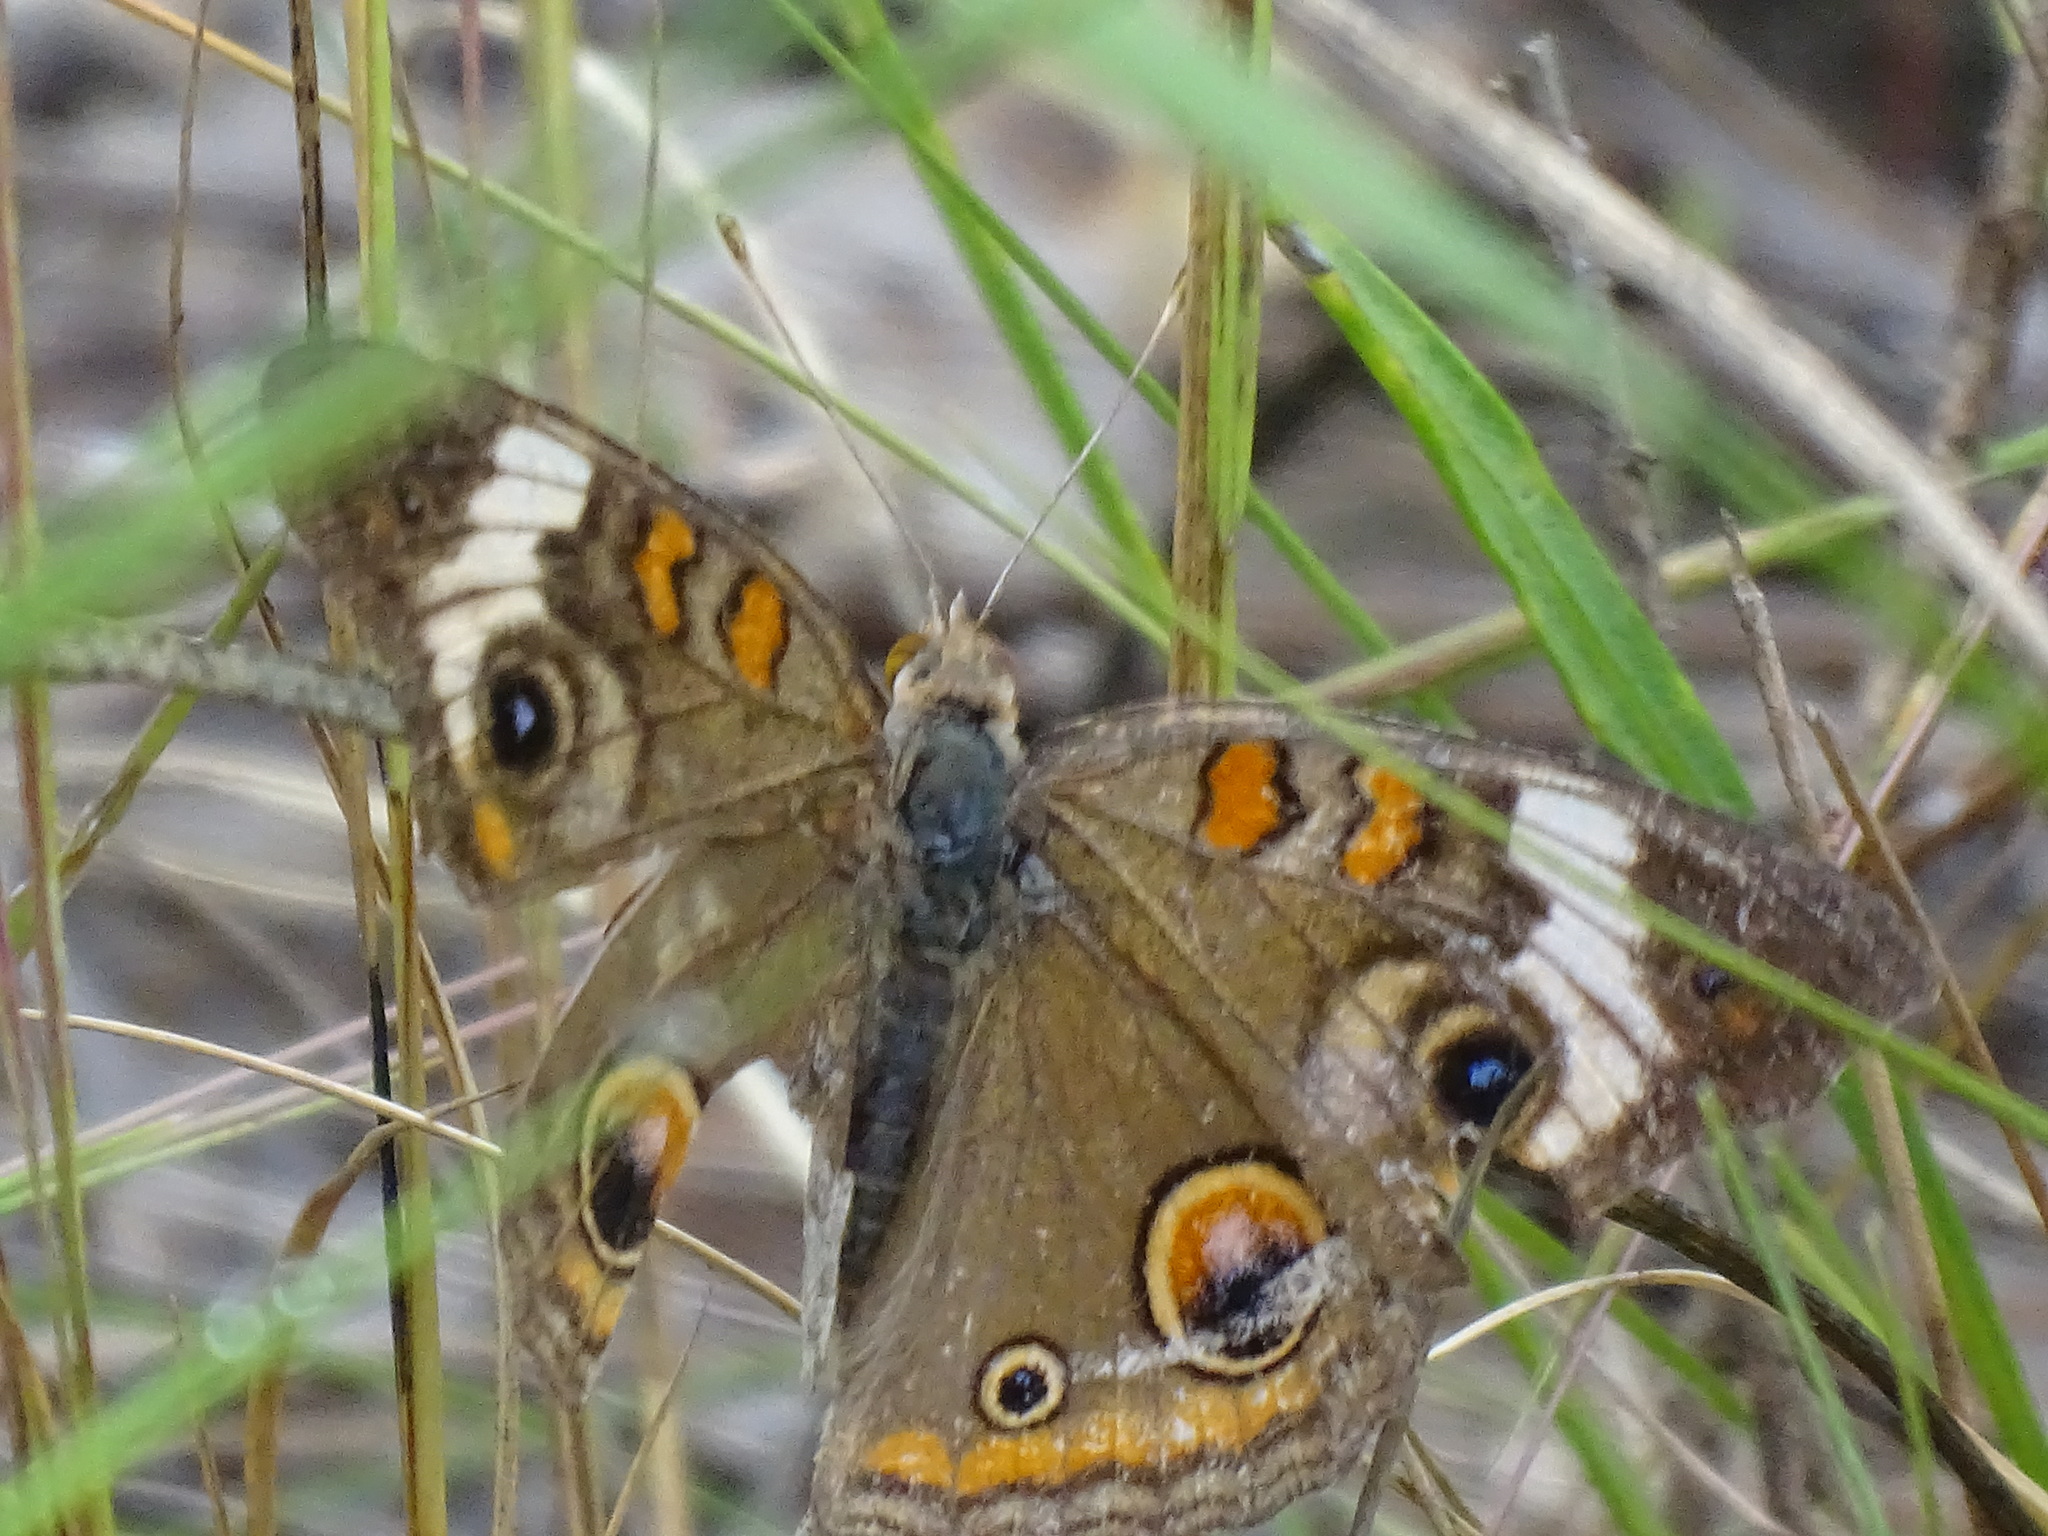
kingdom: Animalia
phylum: Arthropoda
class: Insecta
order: Lepidoptera
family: Nymphalidae
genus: Junonia
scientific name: Junonia coenia
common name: Common buckeye
